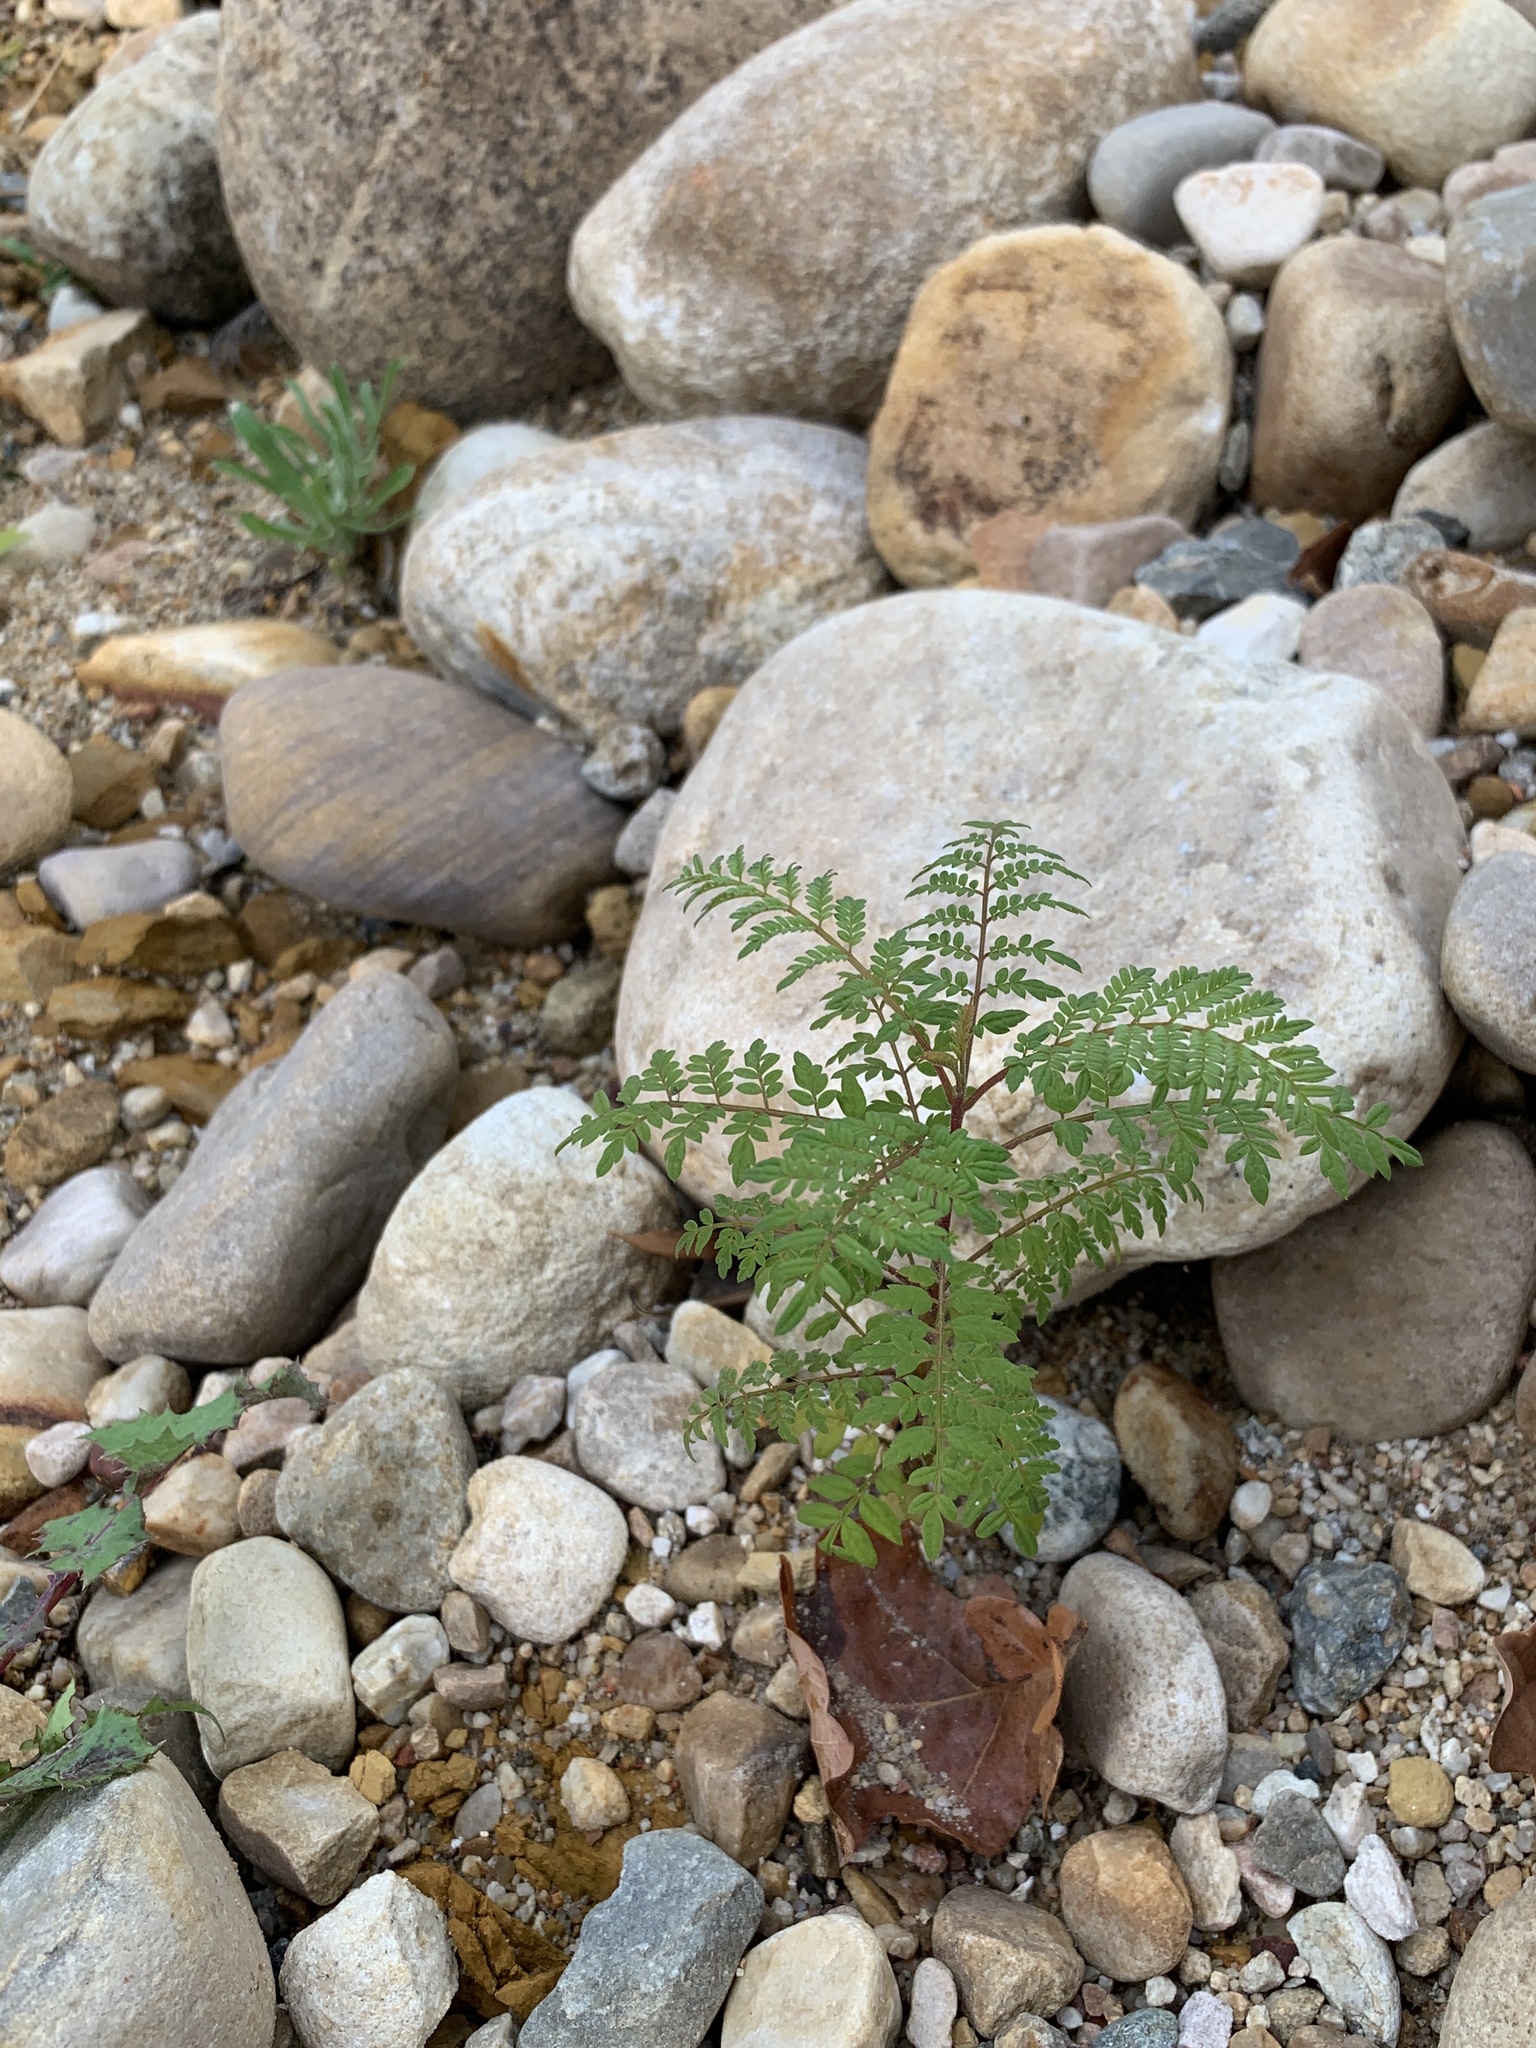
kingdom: Plantae
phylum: Tracheophyta
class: Magnoliopsida
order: Lamiales
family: Bignoniaceae
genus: Jacaranda
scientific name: Jacaranda mimosifolia
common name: Black poui
